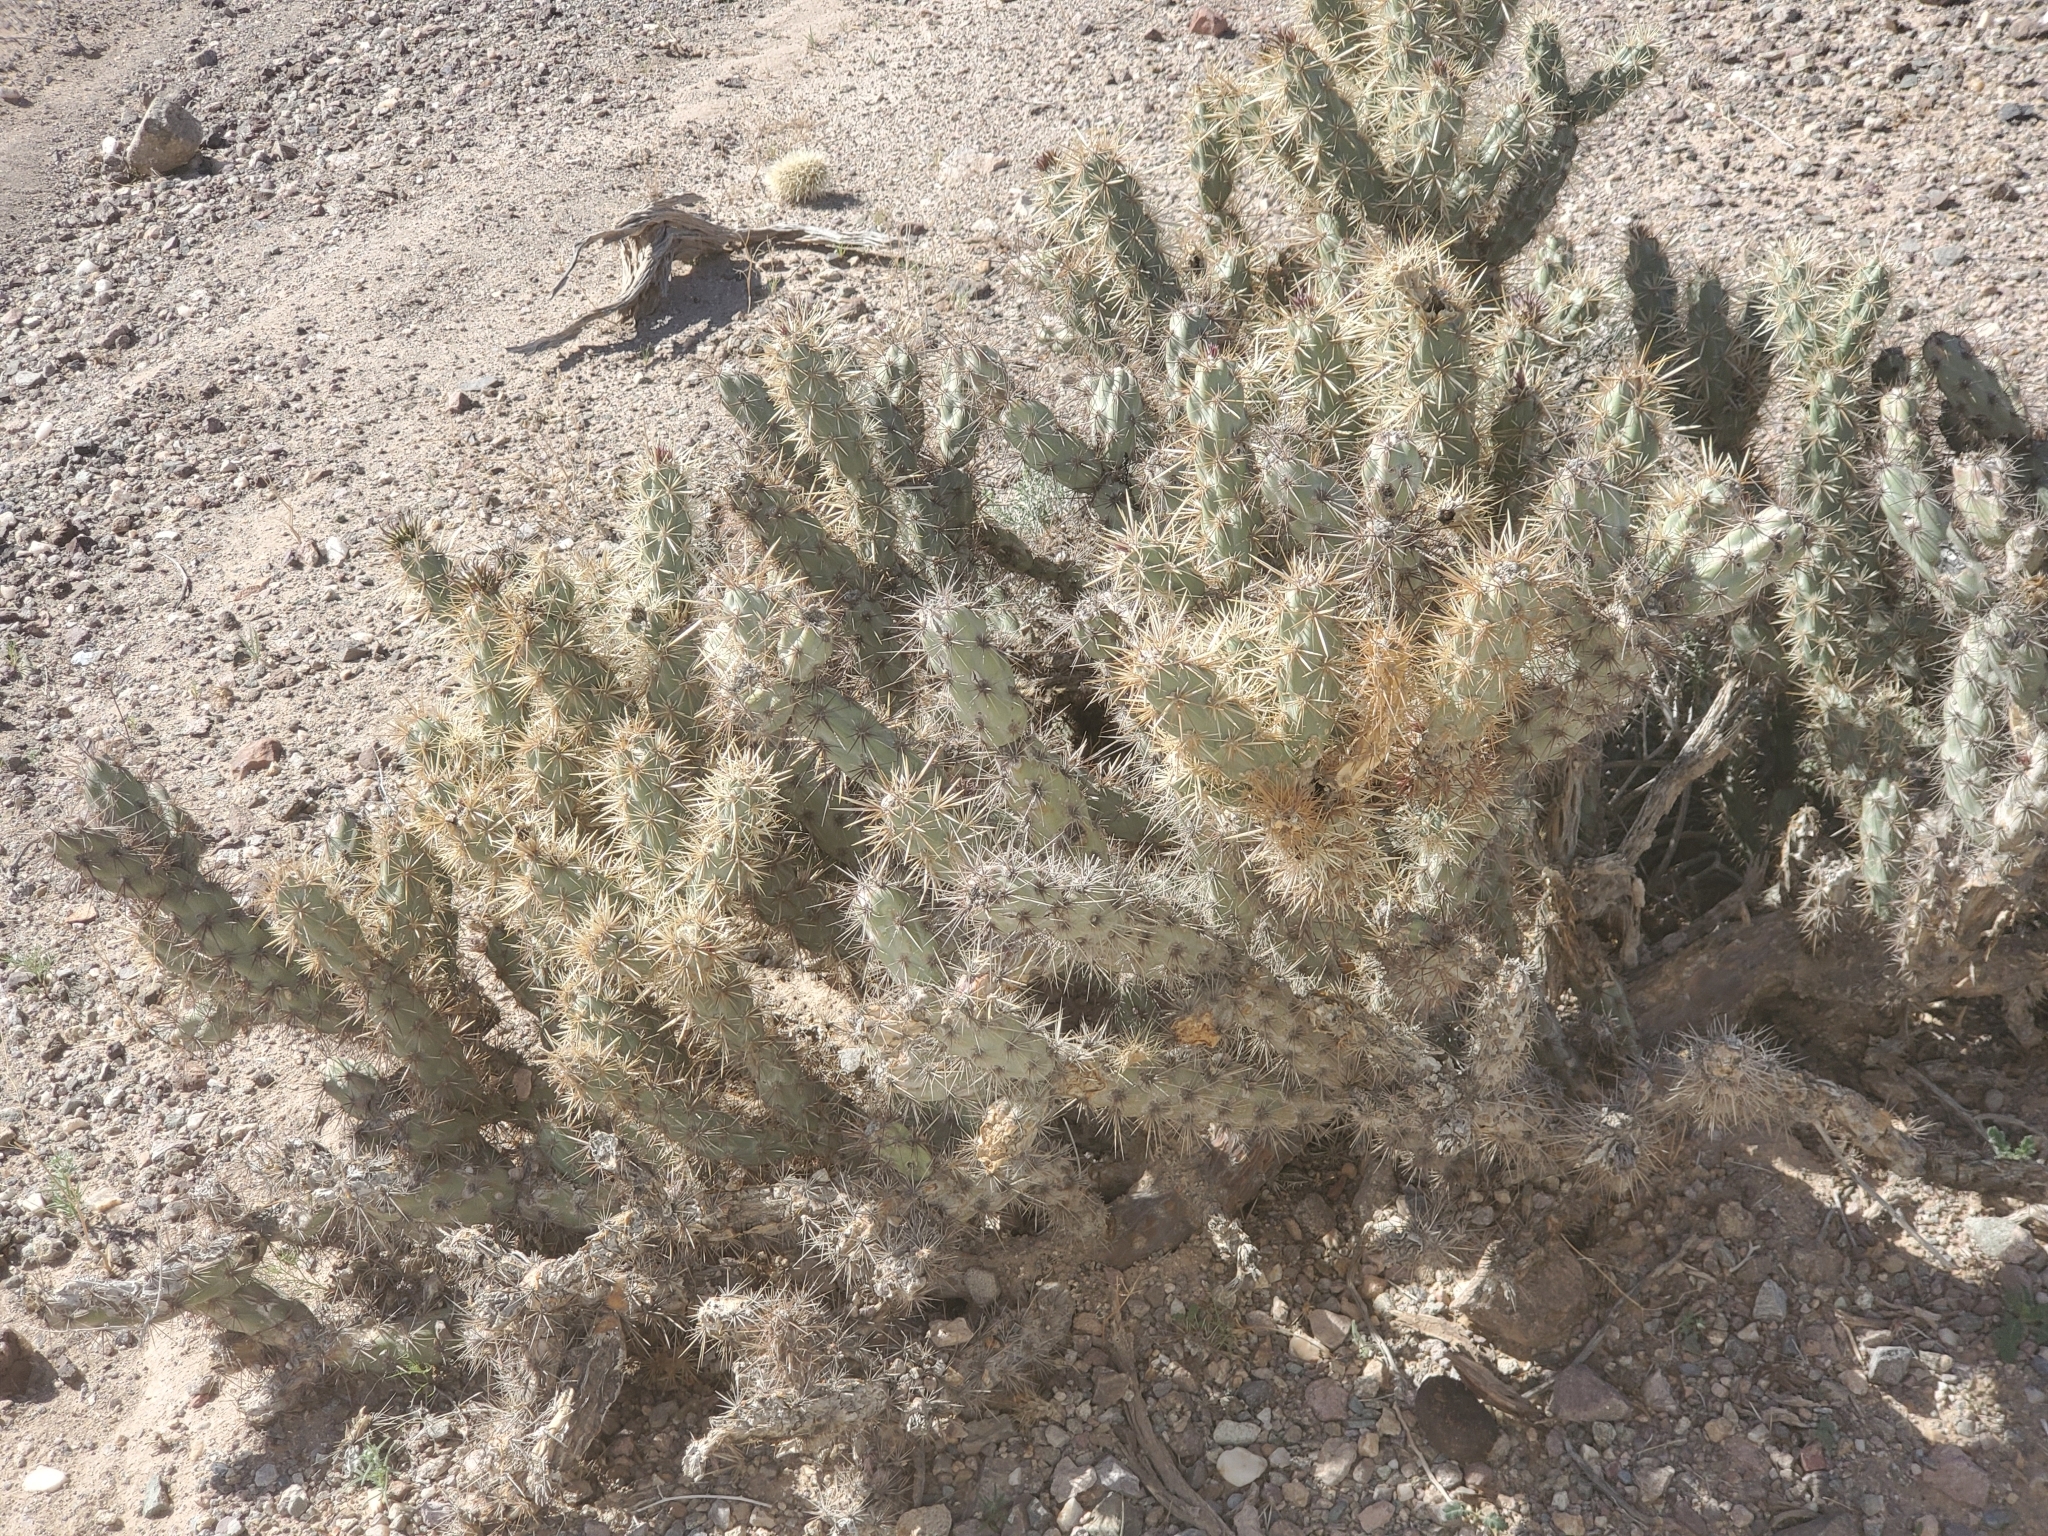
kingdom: Plantae
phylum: Tracheophyta
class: Magnoliopsida
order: Caryophyllales
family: Cactaceae
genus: Cylindropuntia
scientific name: Cylindropuntia acanthocarpa
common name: Buckhorn cholla
